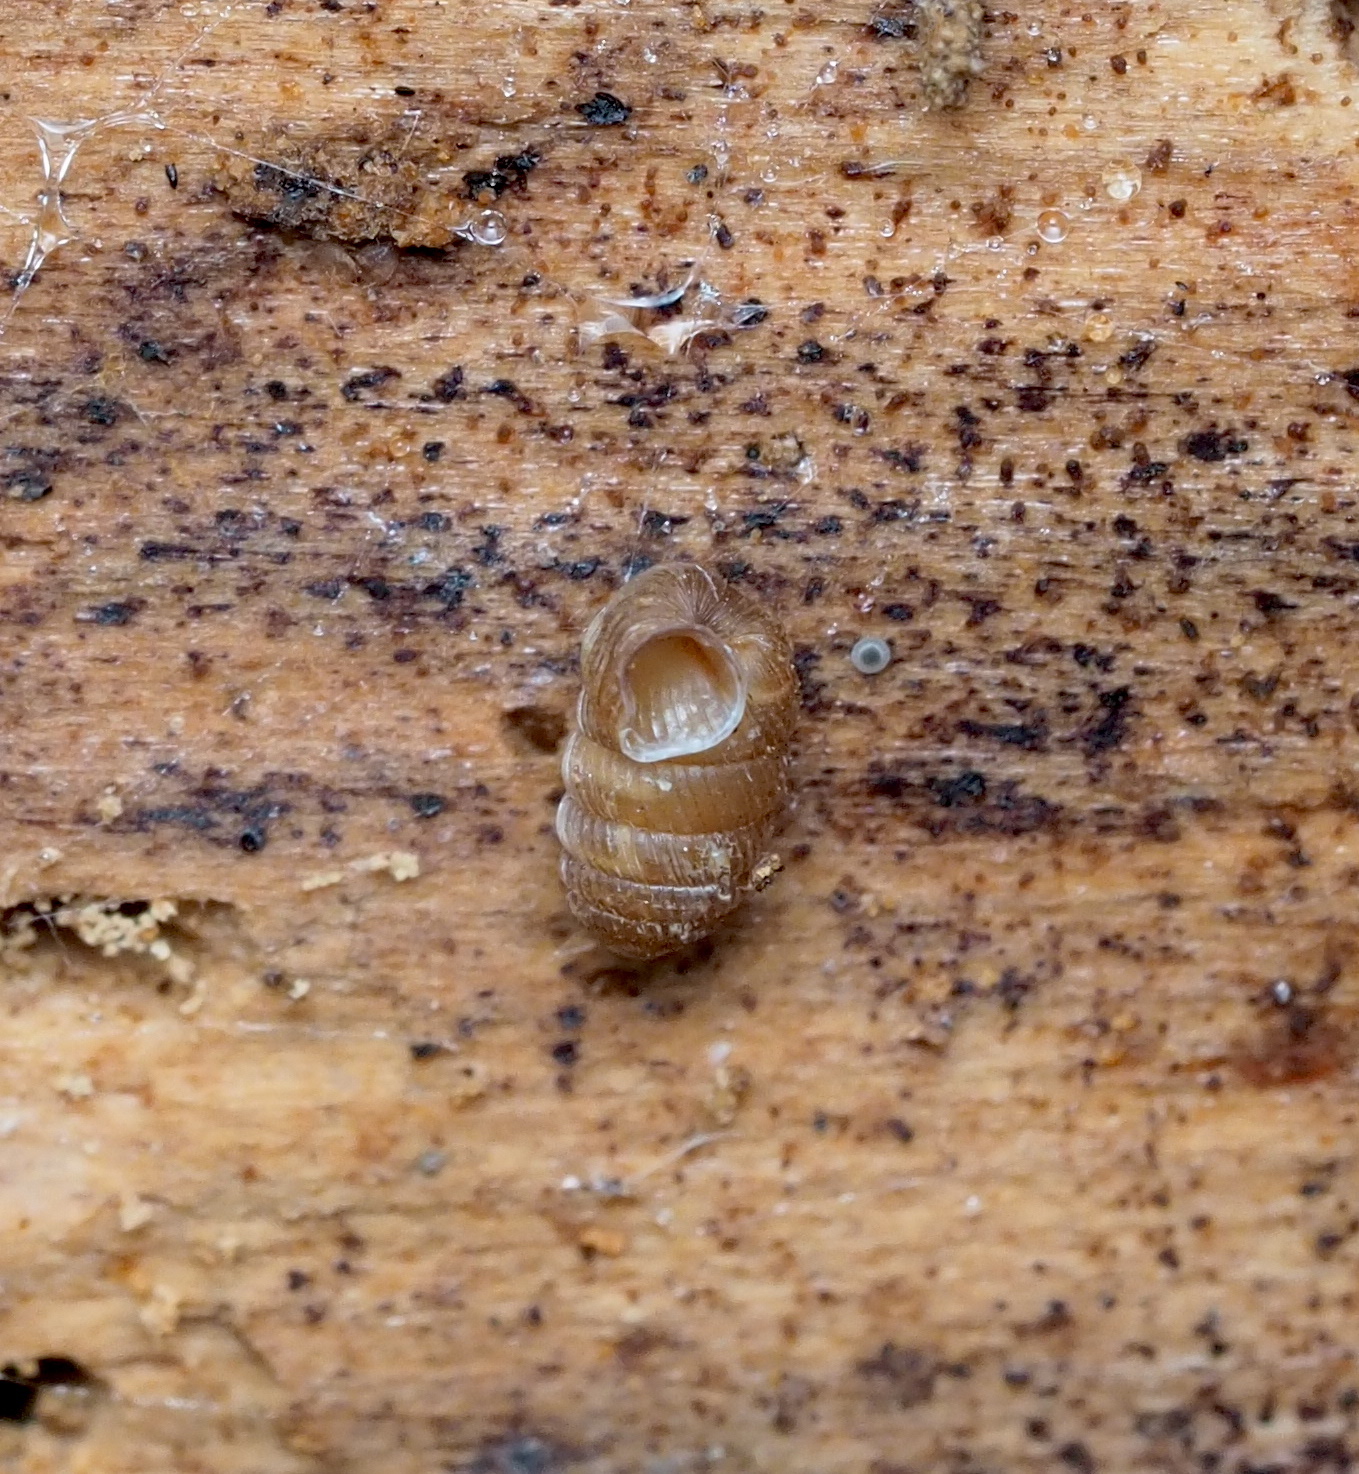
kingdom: Animalia
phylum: Mollusca
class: Gastropoda
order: Stylommatophora
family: Pagodulinidae
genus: Pagodulina
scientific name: Pagodulina pagodula
